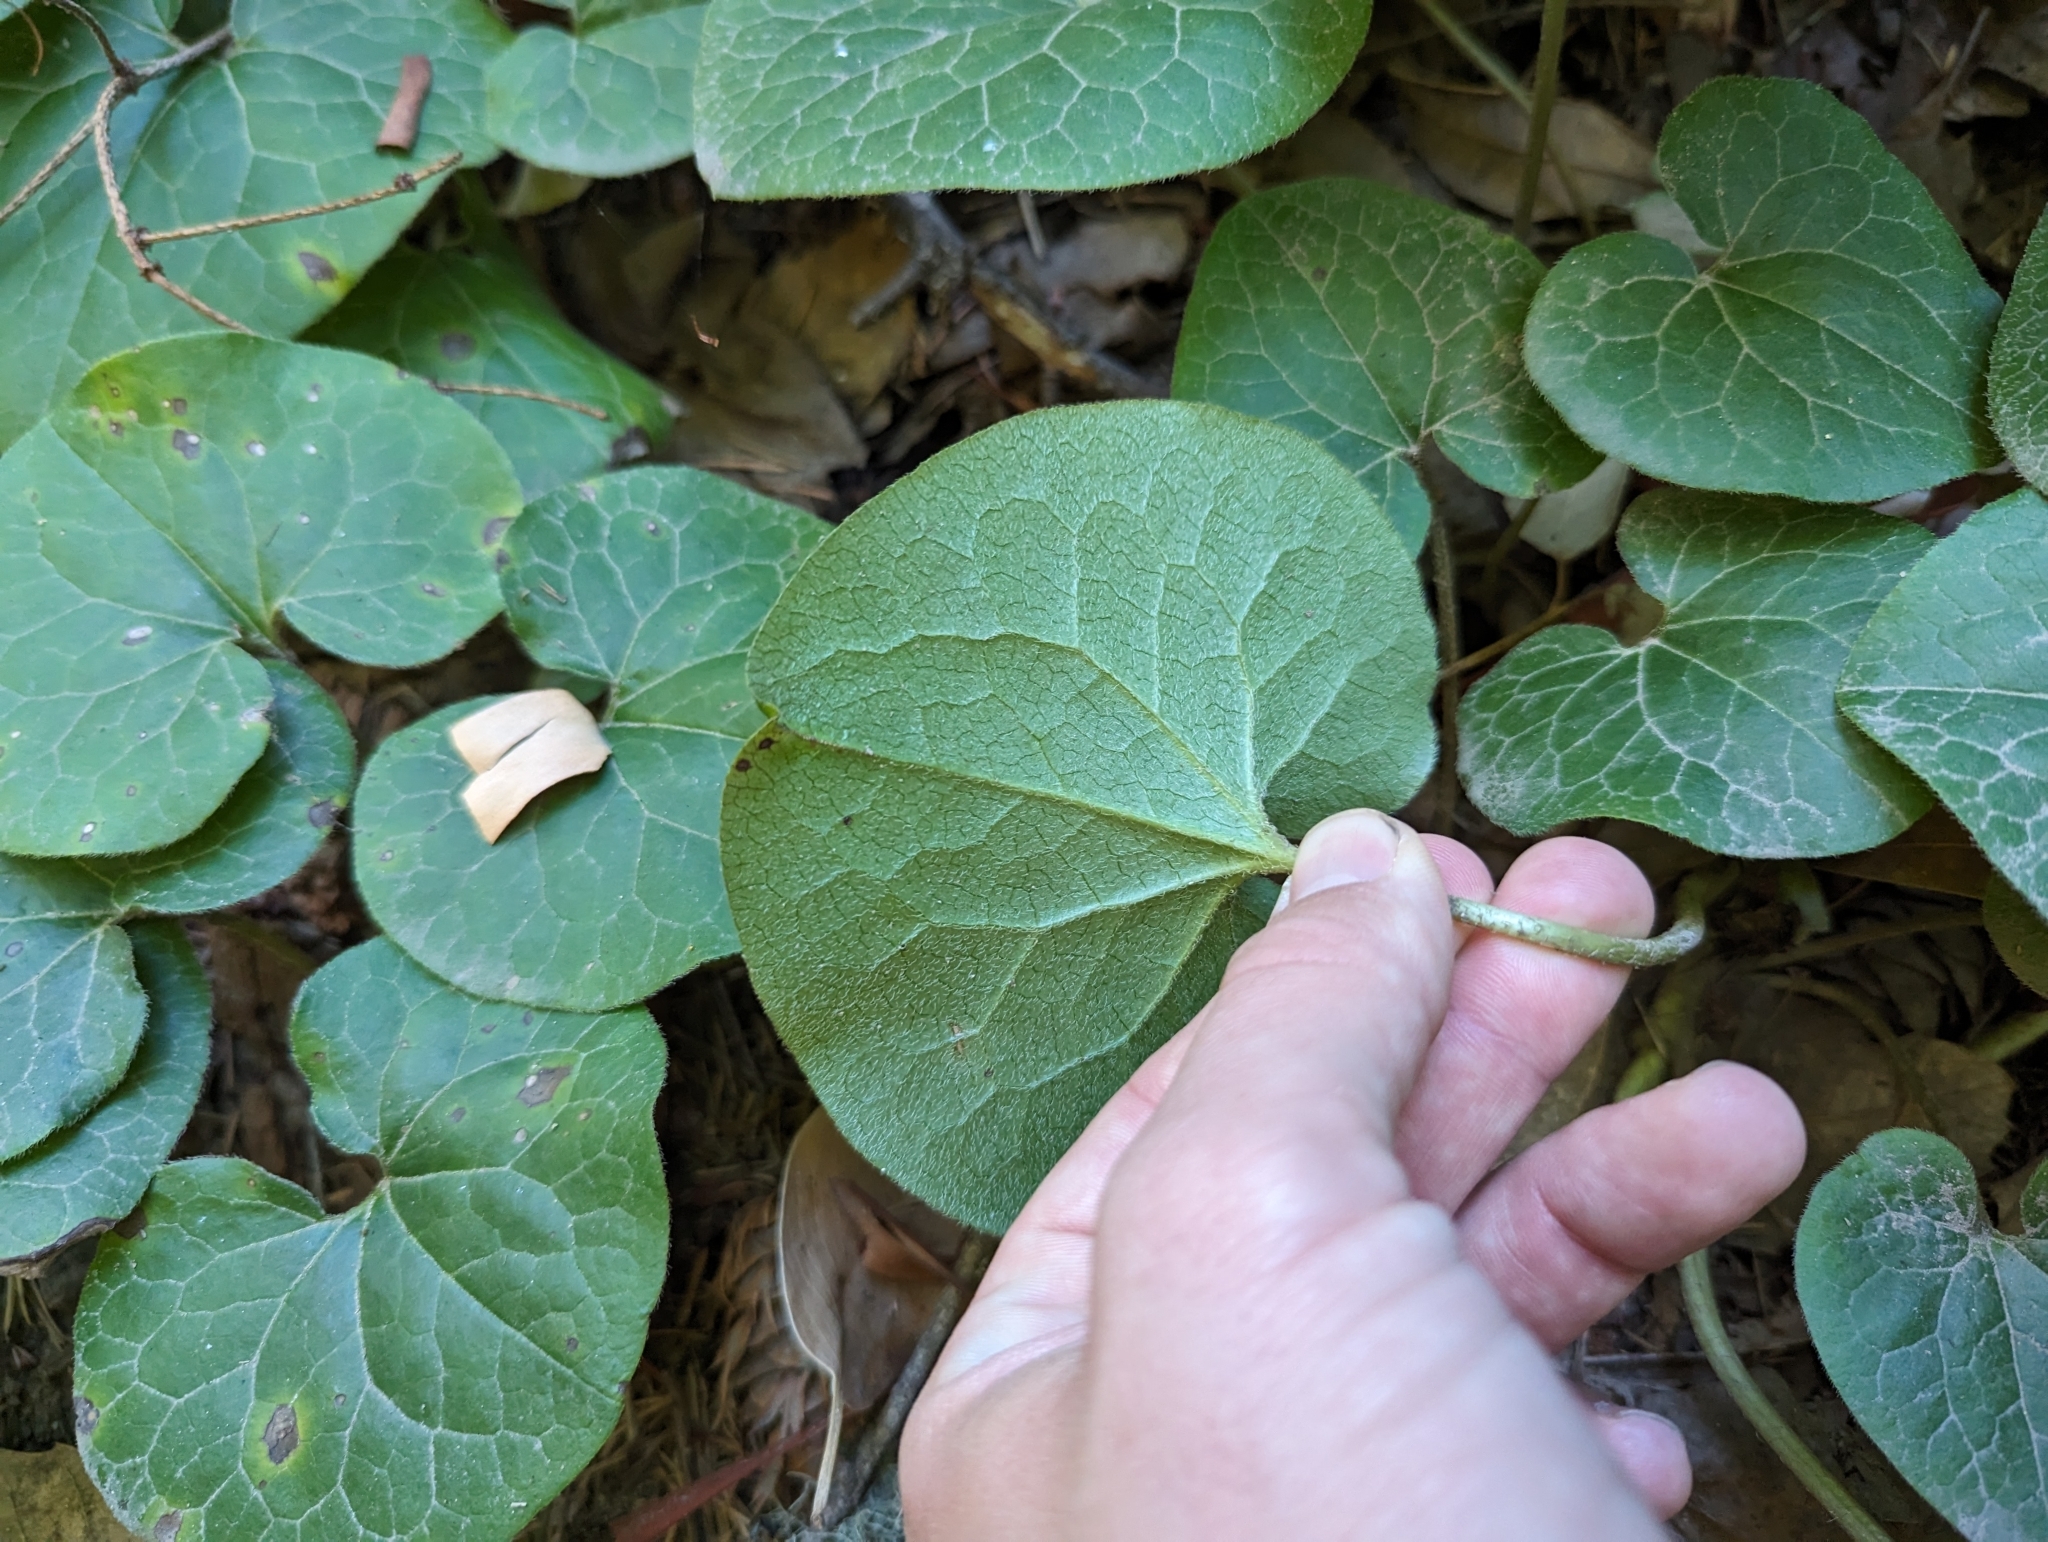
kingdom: Plantae
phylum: Tracheophyta
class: Magnoliopsida
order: Piperales
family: Aristolochiaceae
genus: Asarum
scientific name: Asarum caudatum
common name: Wild ginger
